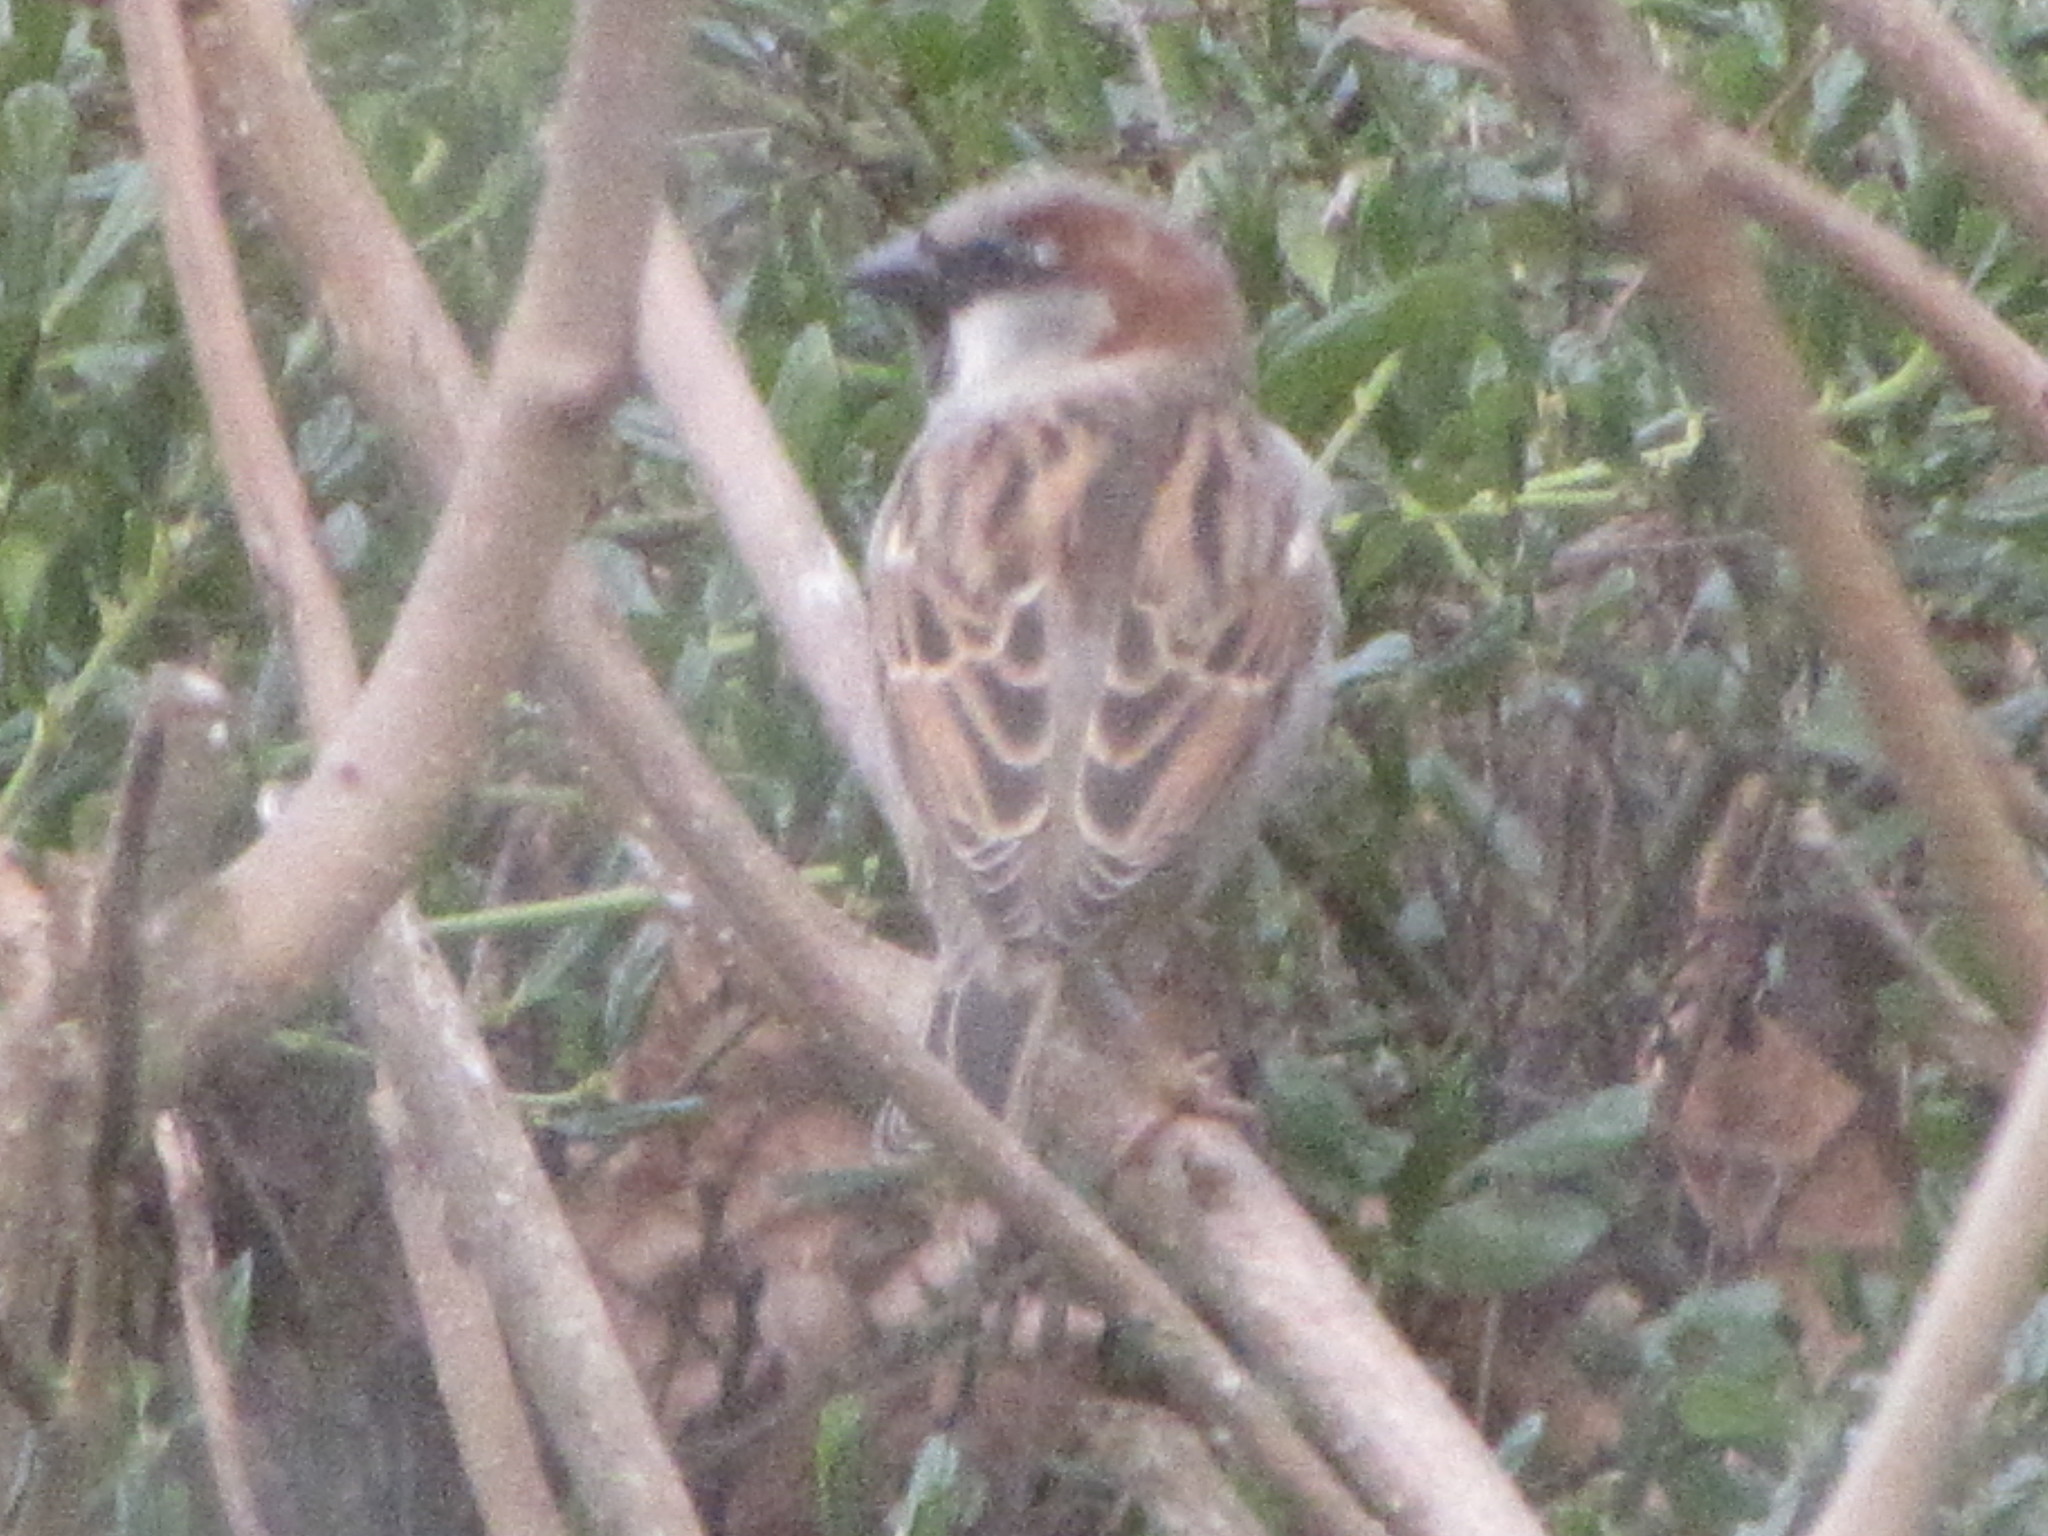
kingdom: Animalia
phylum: Chordata
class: Aves
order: Passeriformes
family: Passeridae
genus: Passer
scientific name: Passer domesticus
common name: House sparrow
